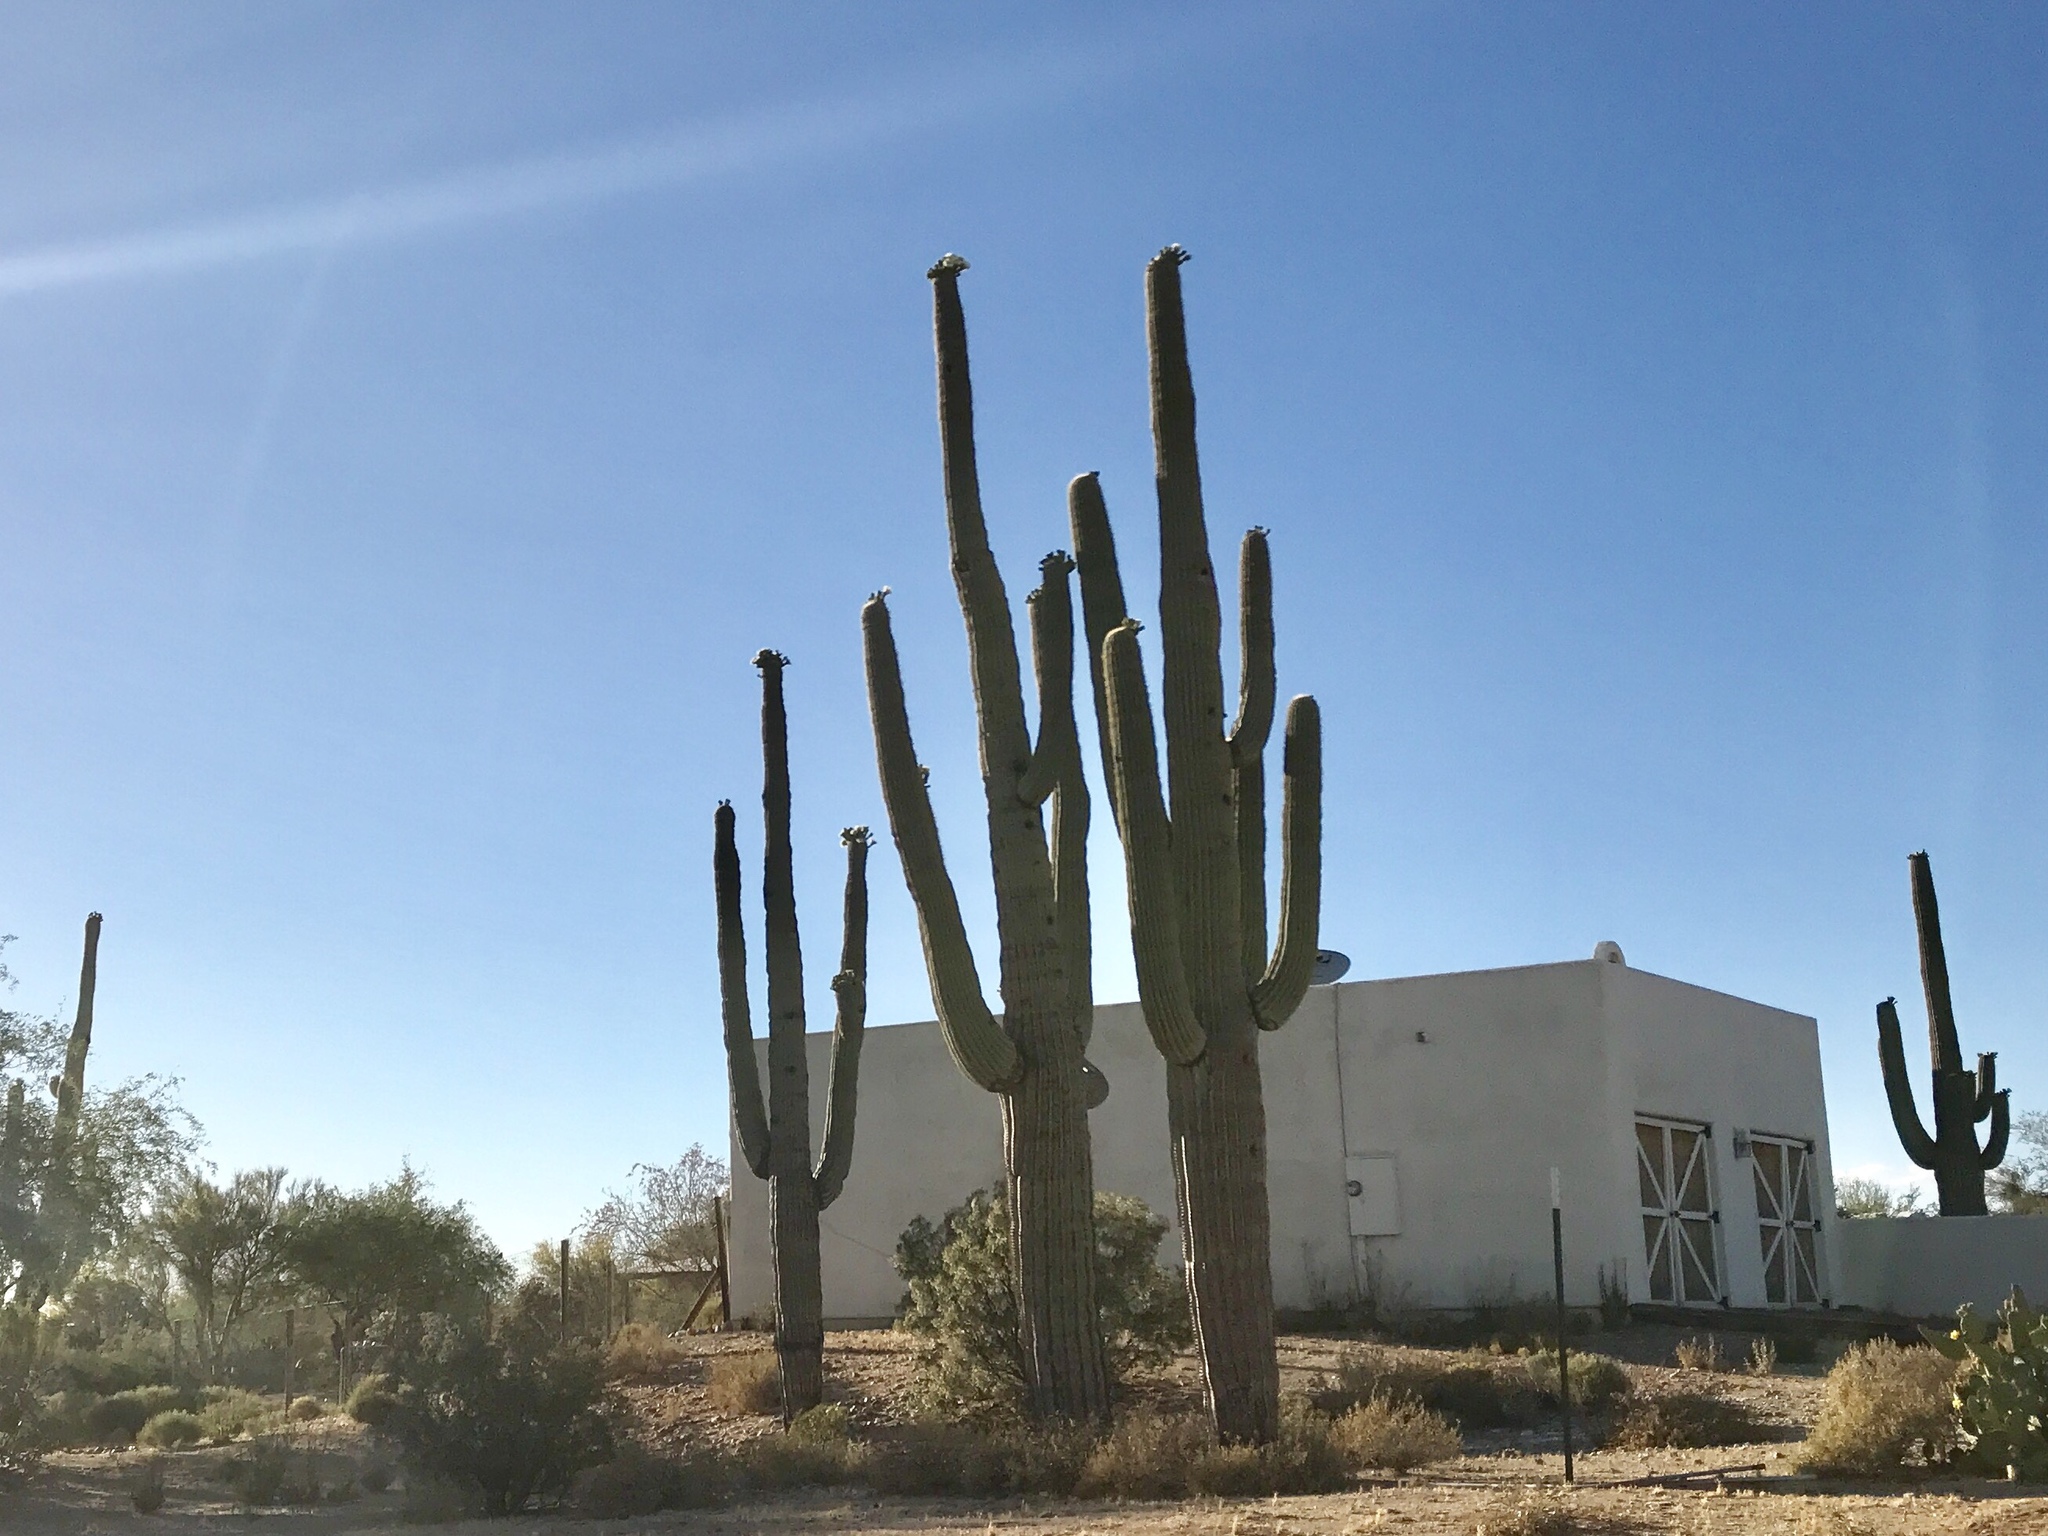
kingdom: Plantae
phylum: Tracheophyta
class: Magnoliopsida
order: Caryophyllales
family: Cactaceae
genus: Carnegiea
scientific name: Carnegiea gigantea
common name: Saguaro
